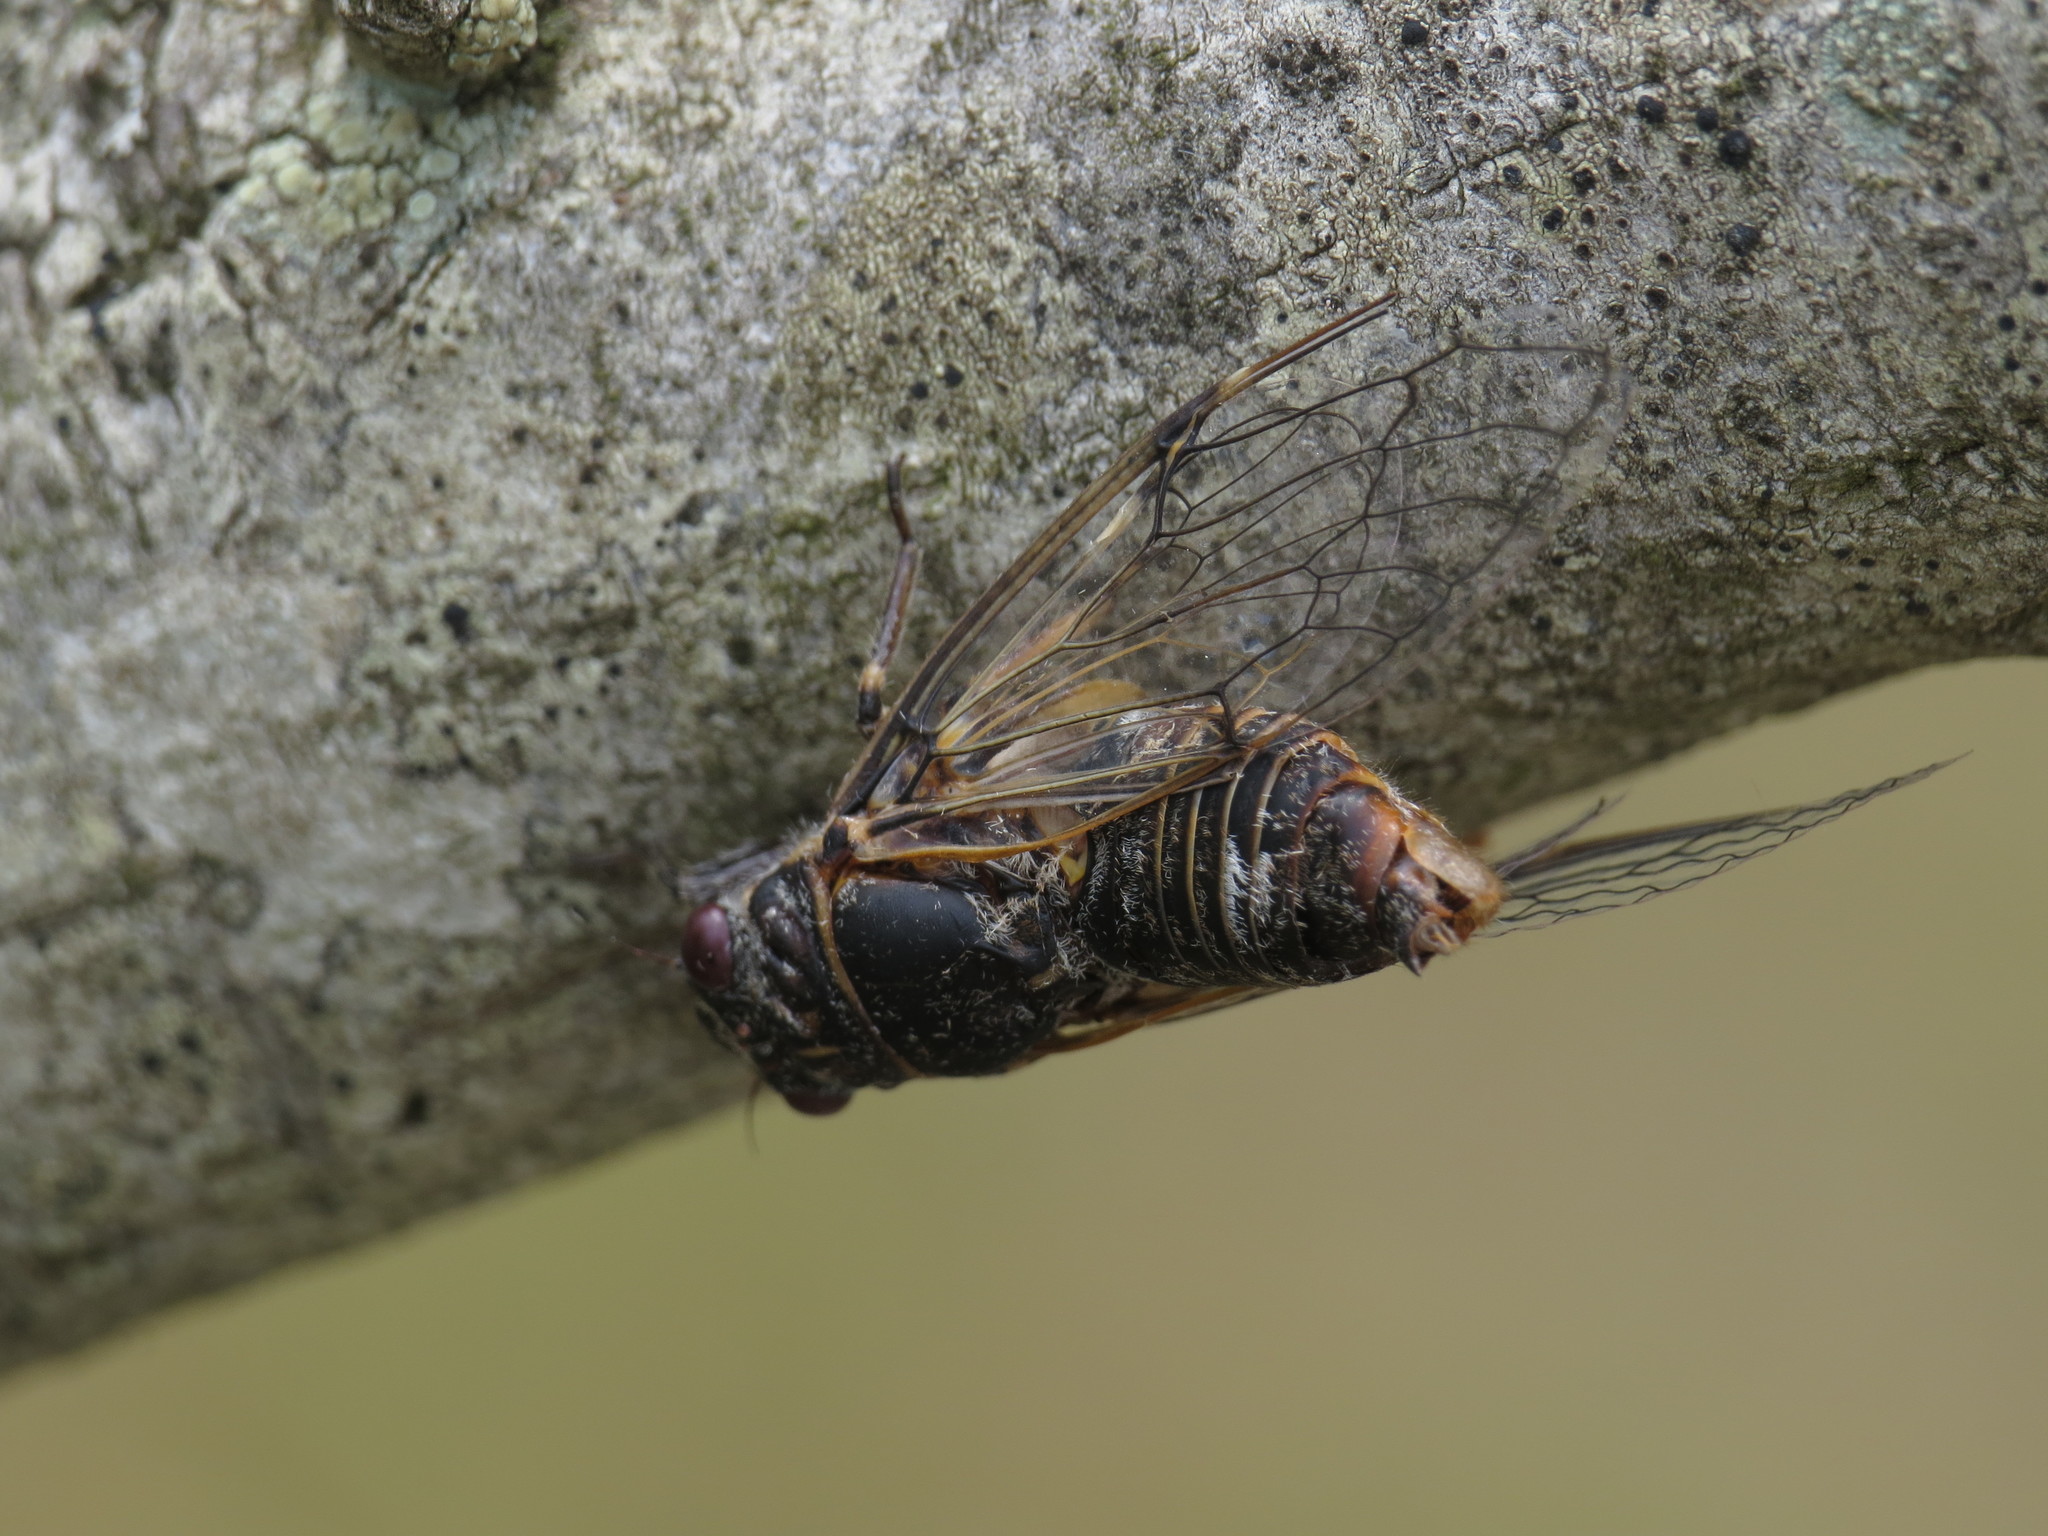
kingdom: Animalia
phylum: Arthropoda
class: Insecta
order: Hemiptera
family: Cicadidae
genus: Cicadatra
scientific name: Cicadatra atra
